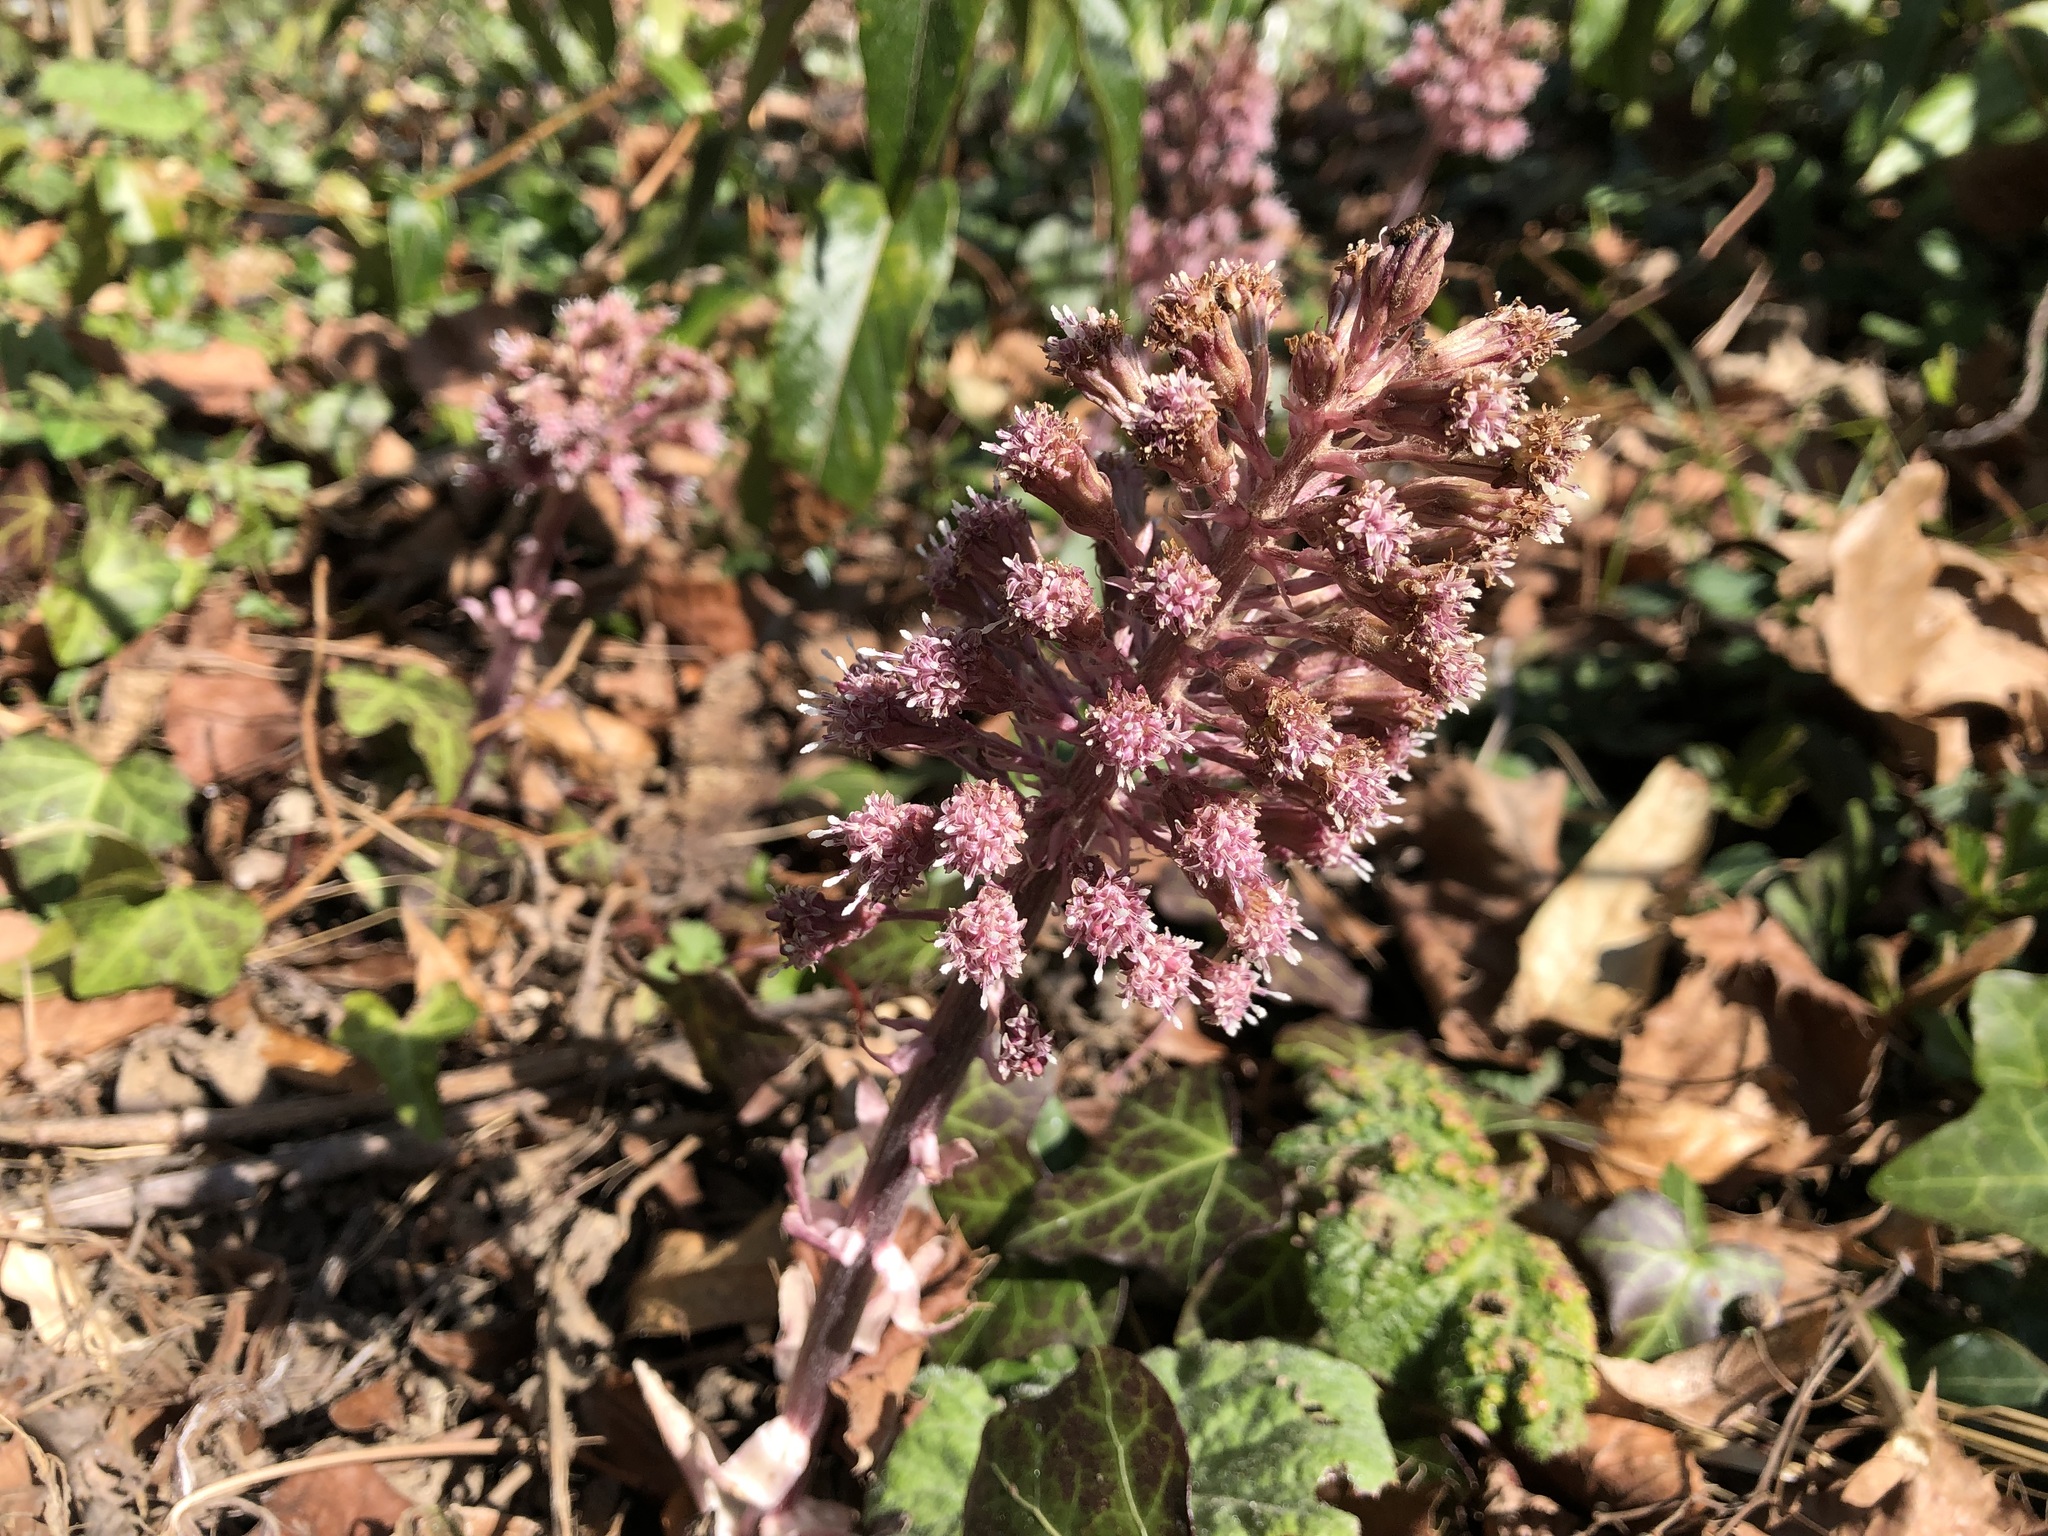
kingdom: Plantae
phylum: Tracheophyta
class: Magnoliopsida
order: Asterales
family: Asteraceae
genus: Petasites
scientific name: Petasites hybridus
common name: Butterbur
